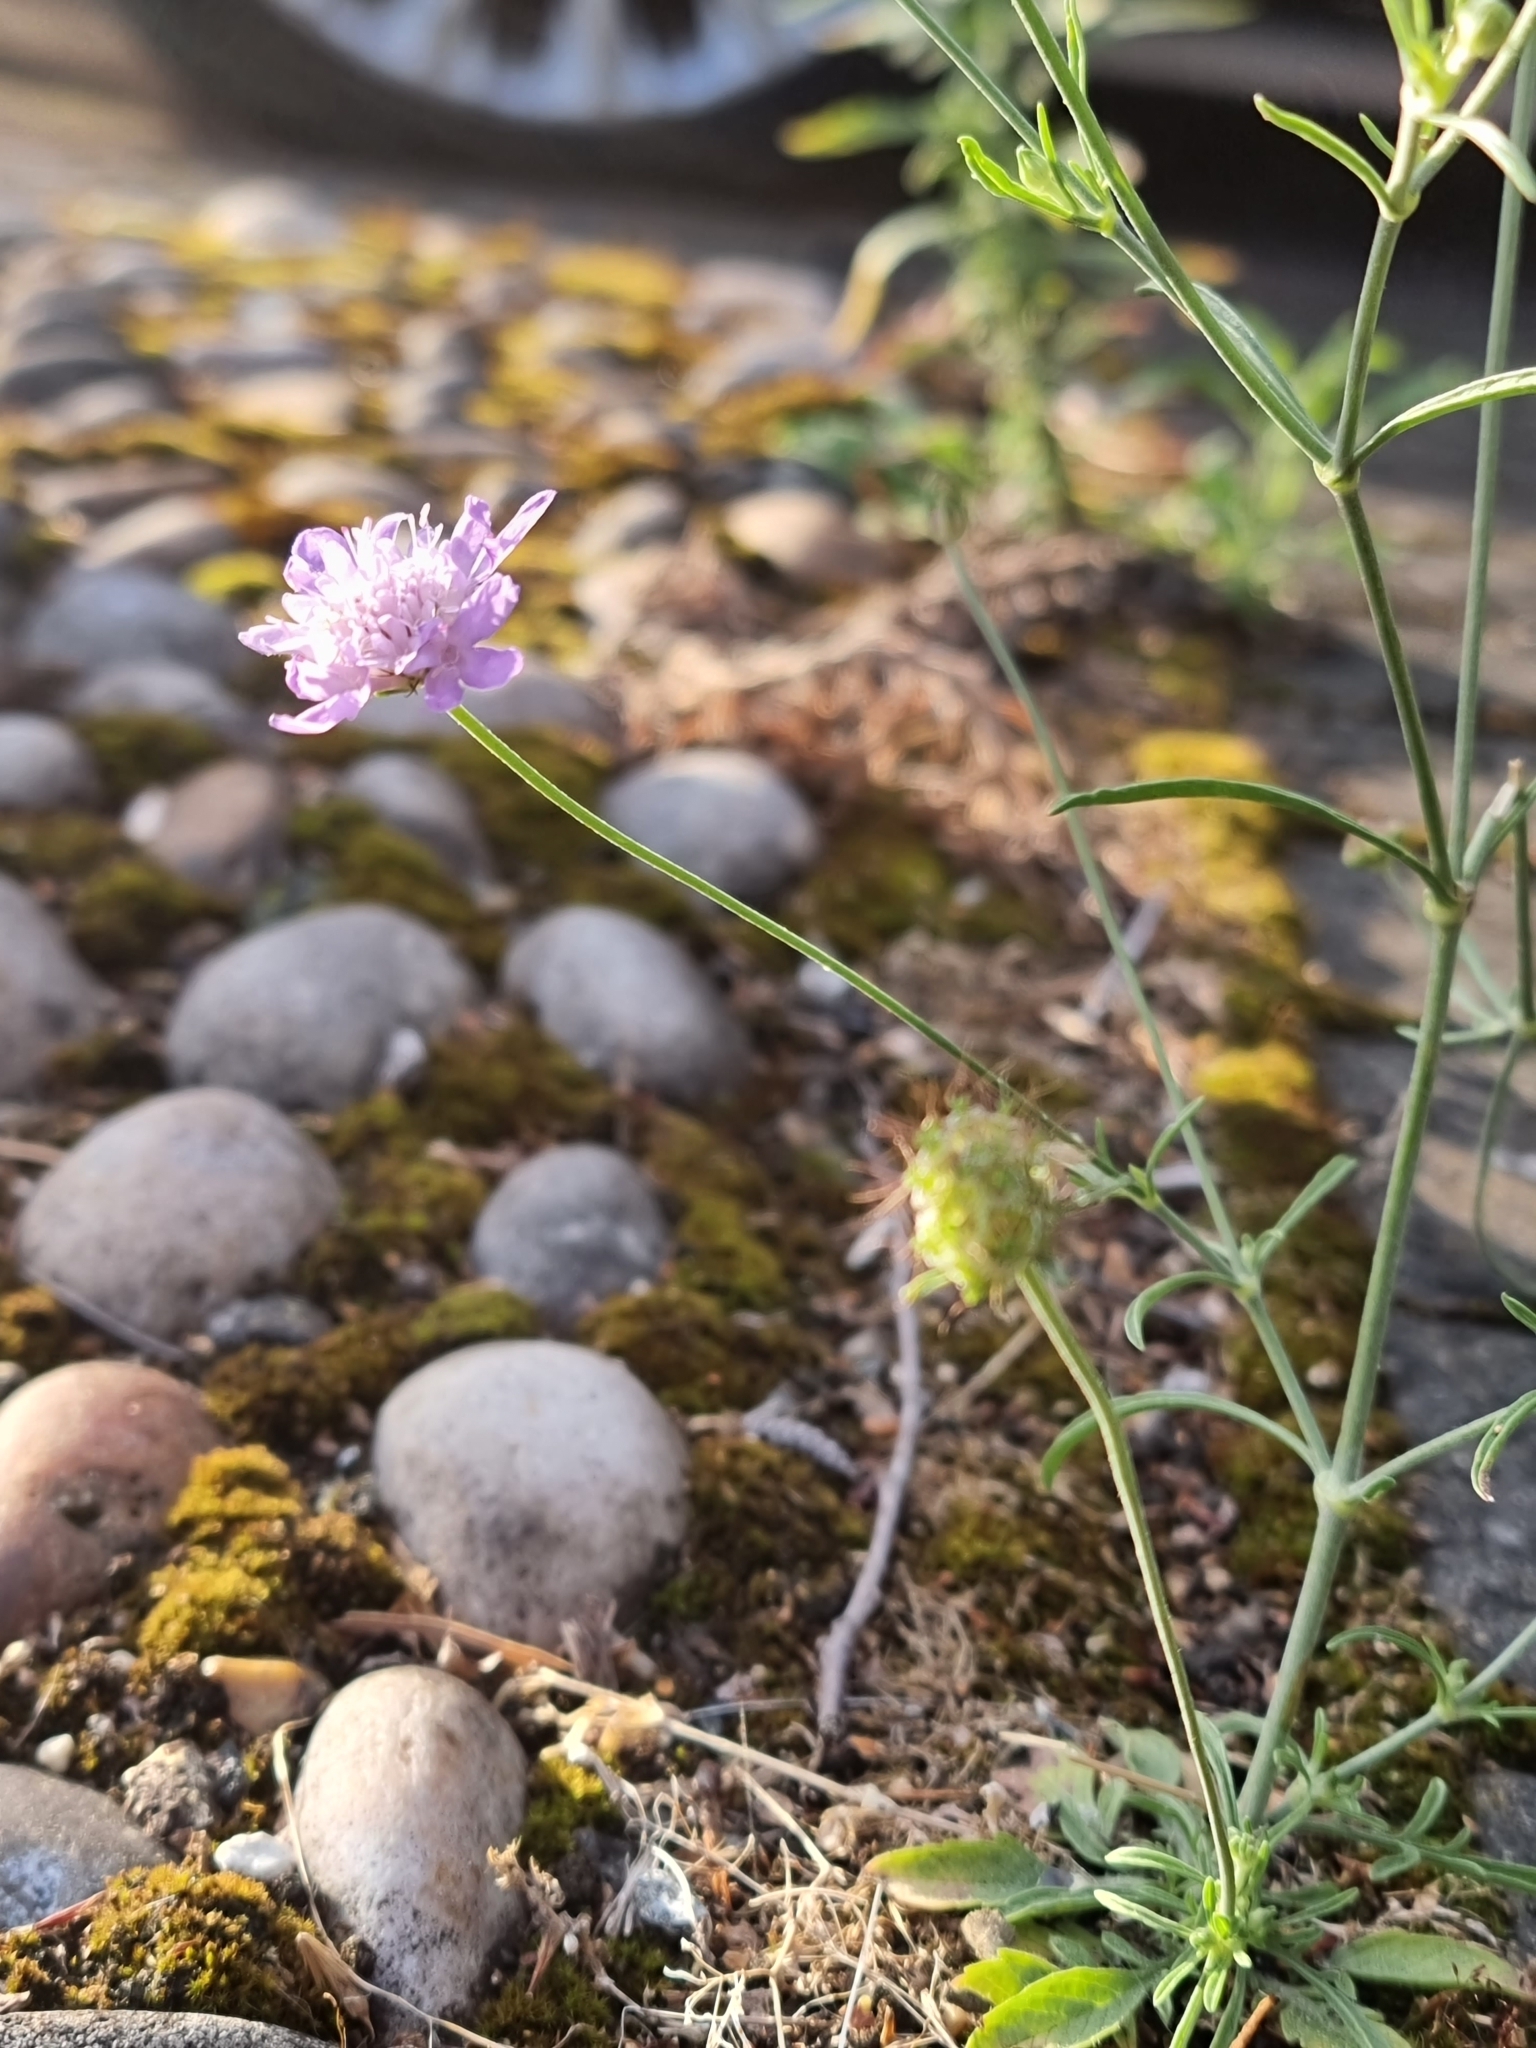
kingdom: Plantae
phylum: Tracheophyta
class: Magnoliopsida
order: Dipsacales
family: Caprifoliaceae
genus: Scabiosa
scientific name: Scabiosa columbaria
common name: Small scabious
